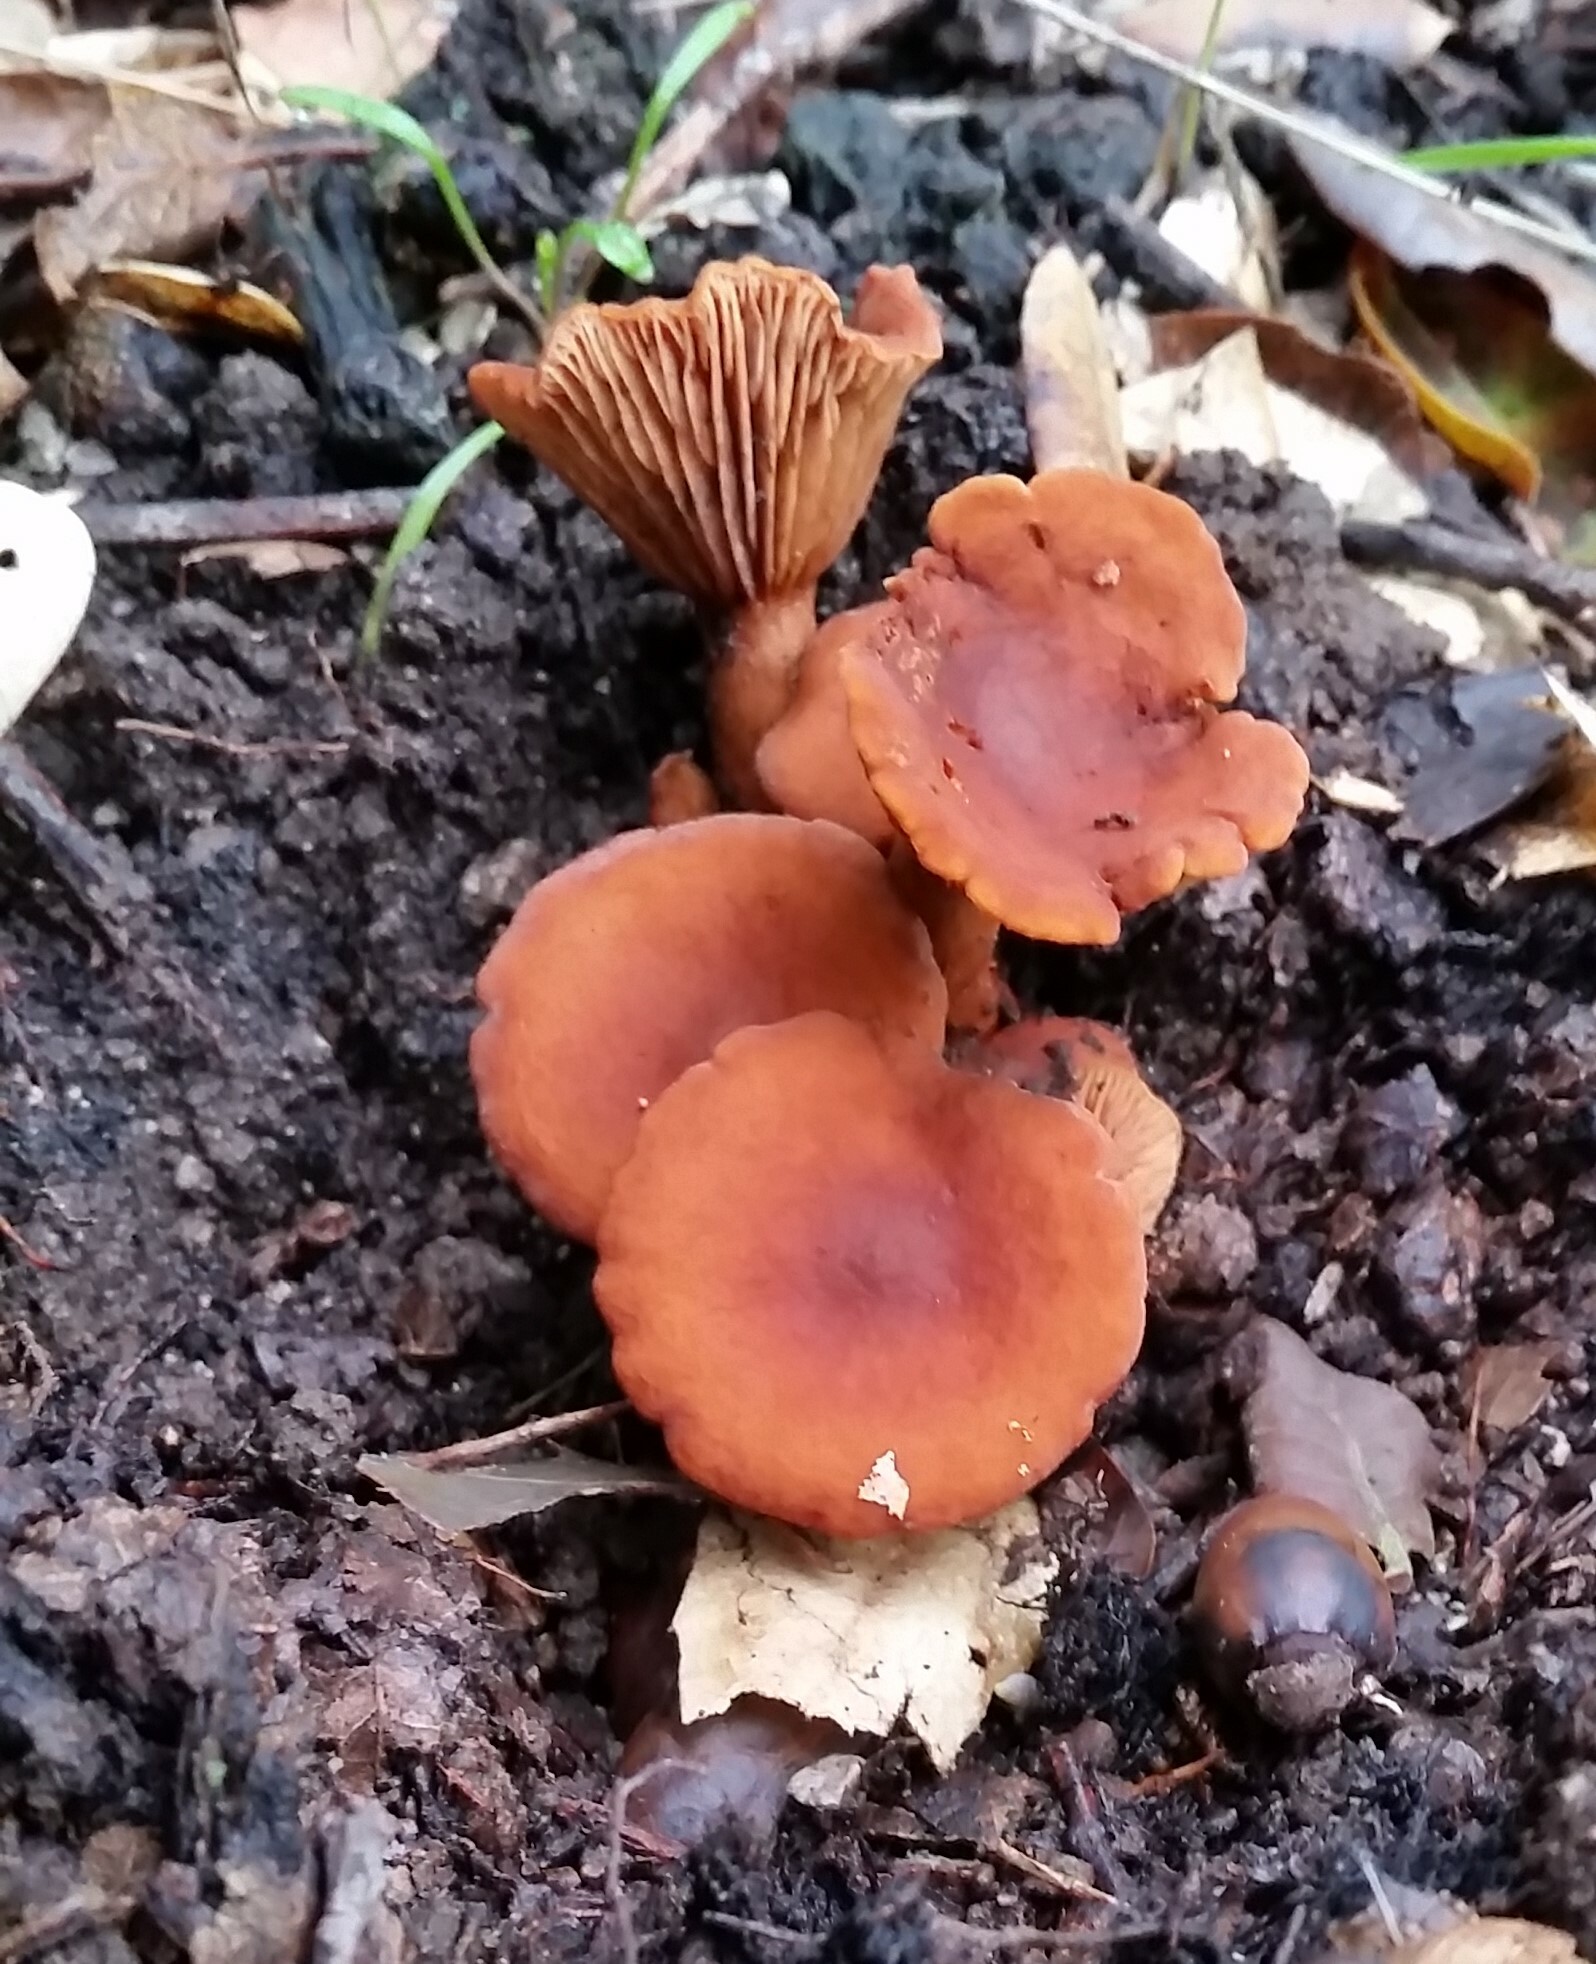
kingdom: Fungi
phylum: Basidiomycota
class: Agaricomycetes
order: Russulales
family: Russulaceae
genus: Lactarius
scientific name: Lactarius rubidus
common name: Candy cap
